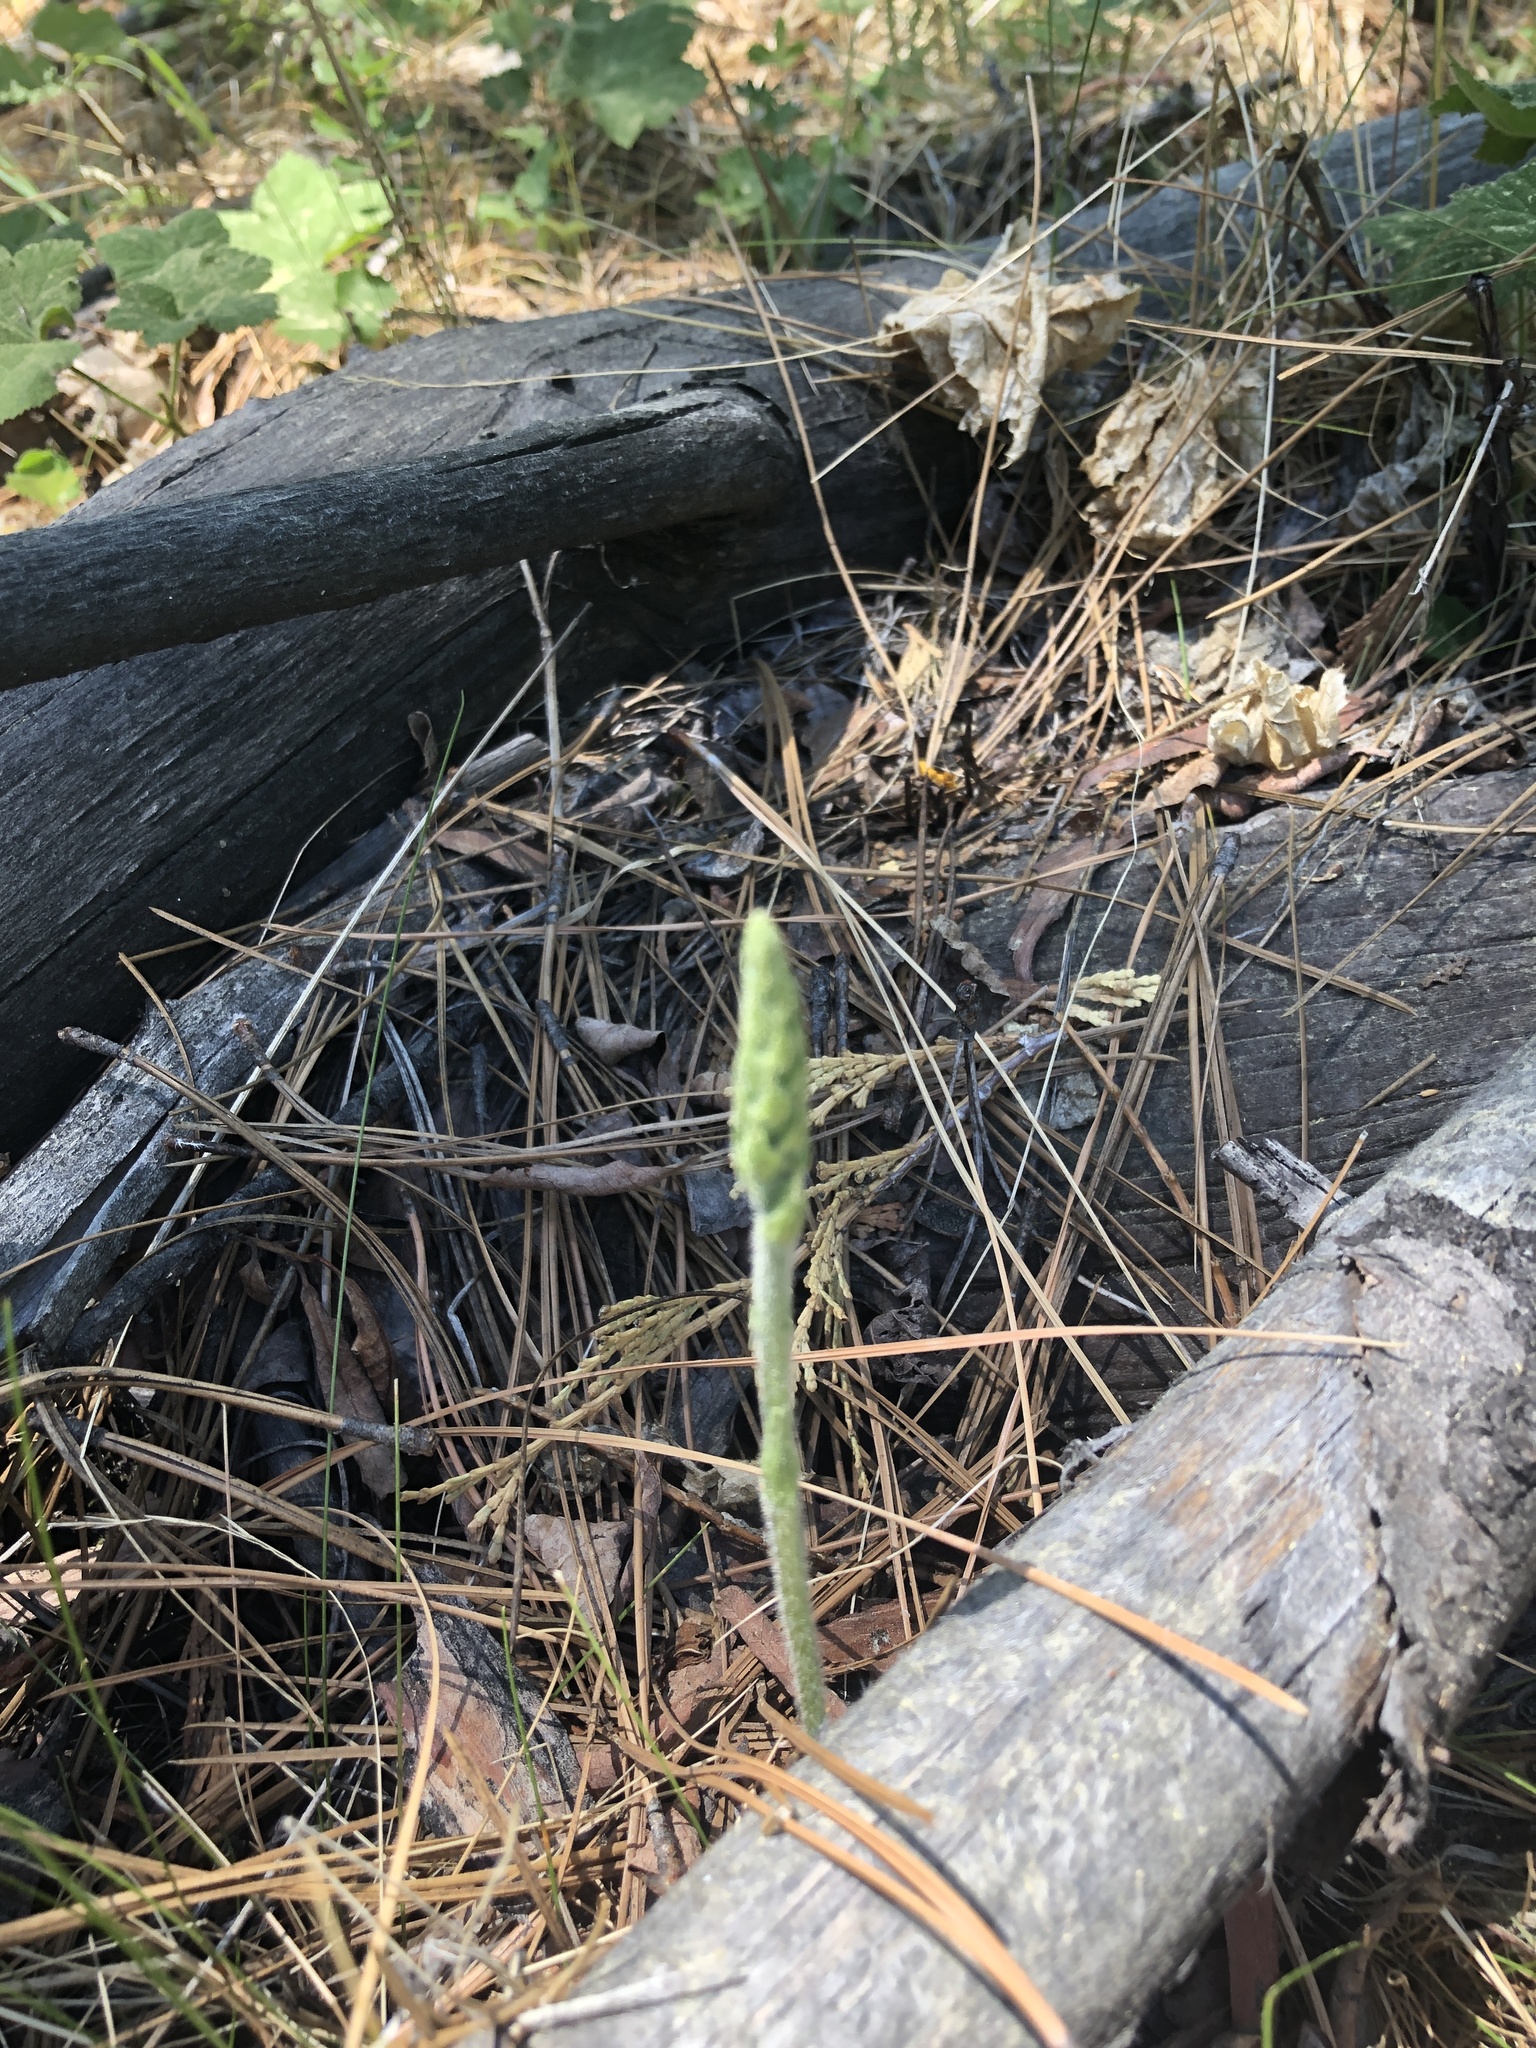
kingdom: Plantae
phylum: Tracheophyta
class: Liliopsida
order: Asparagales
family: Orchidaceae
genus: Goodyera
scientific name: Goodyera oblongifolia
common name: Giant rattlesnake-plantain
